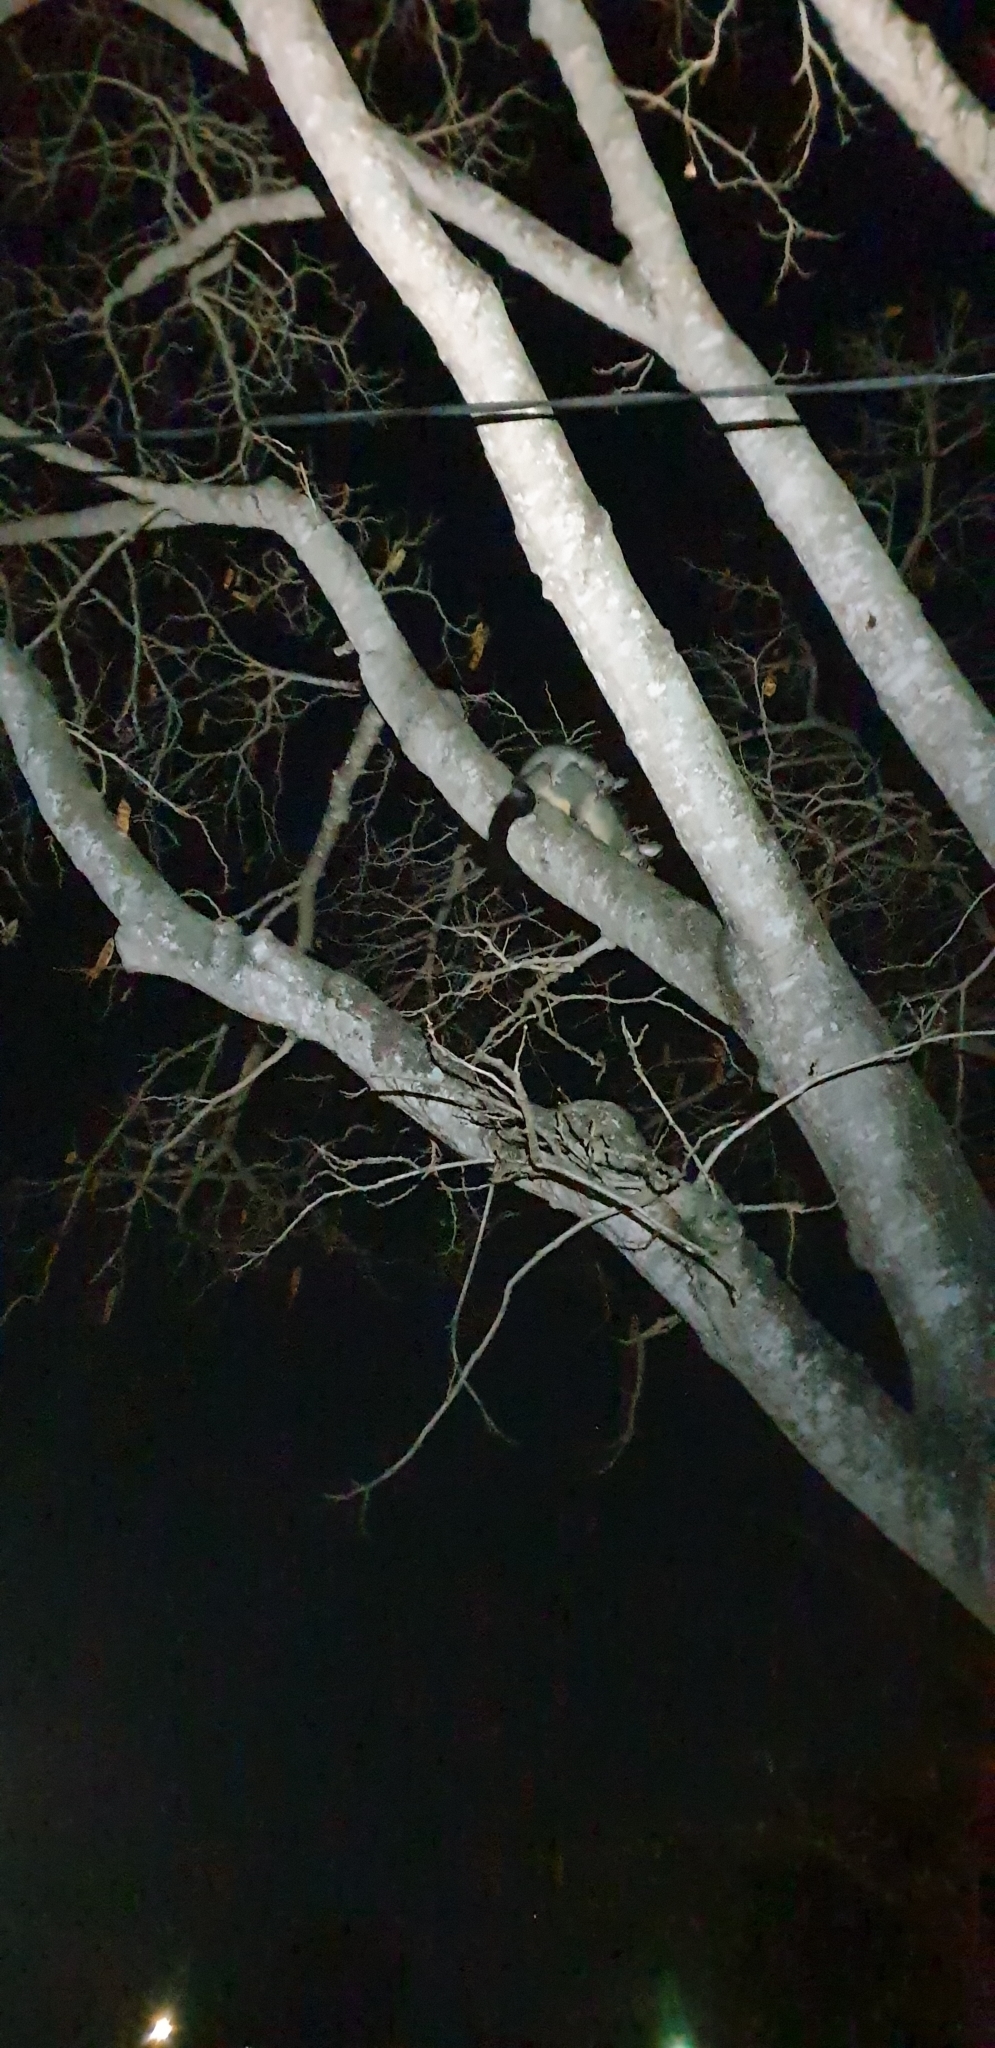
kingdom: Animalia
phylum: Chordata
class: Mammalia
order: Diprotodontia
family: Phalangeridae
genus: Trichosurus
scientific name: Trichosurus vulpecula
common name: Common brushtail
